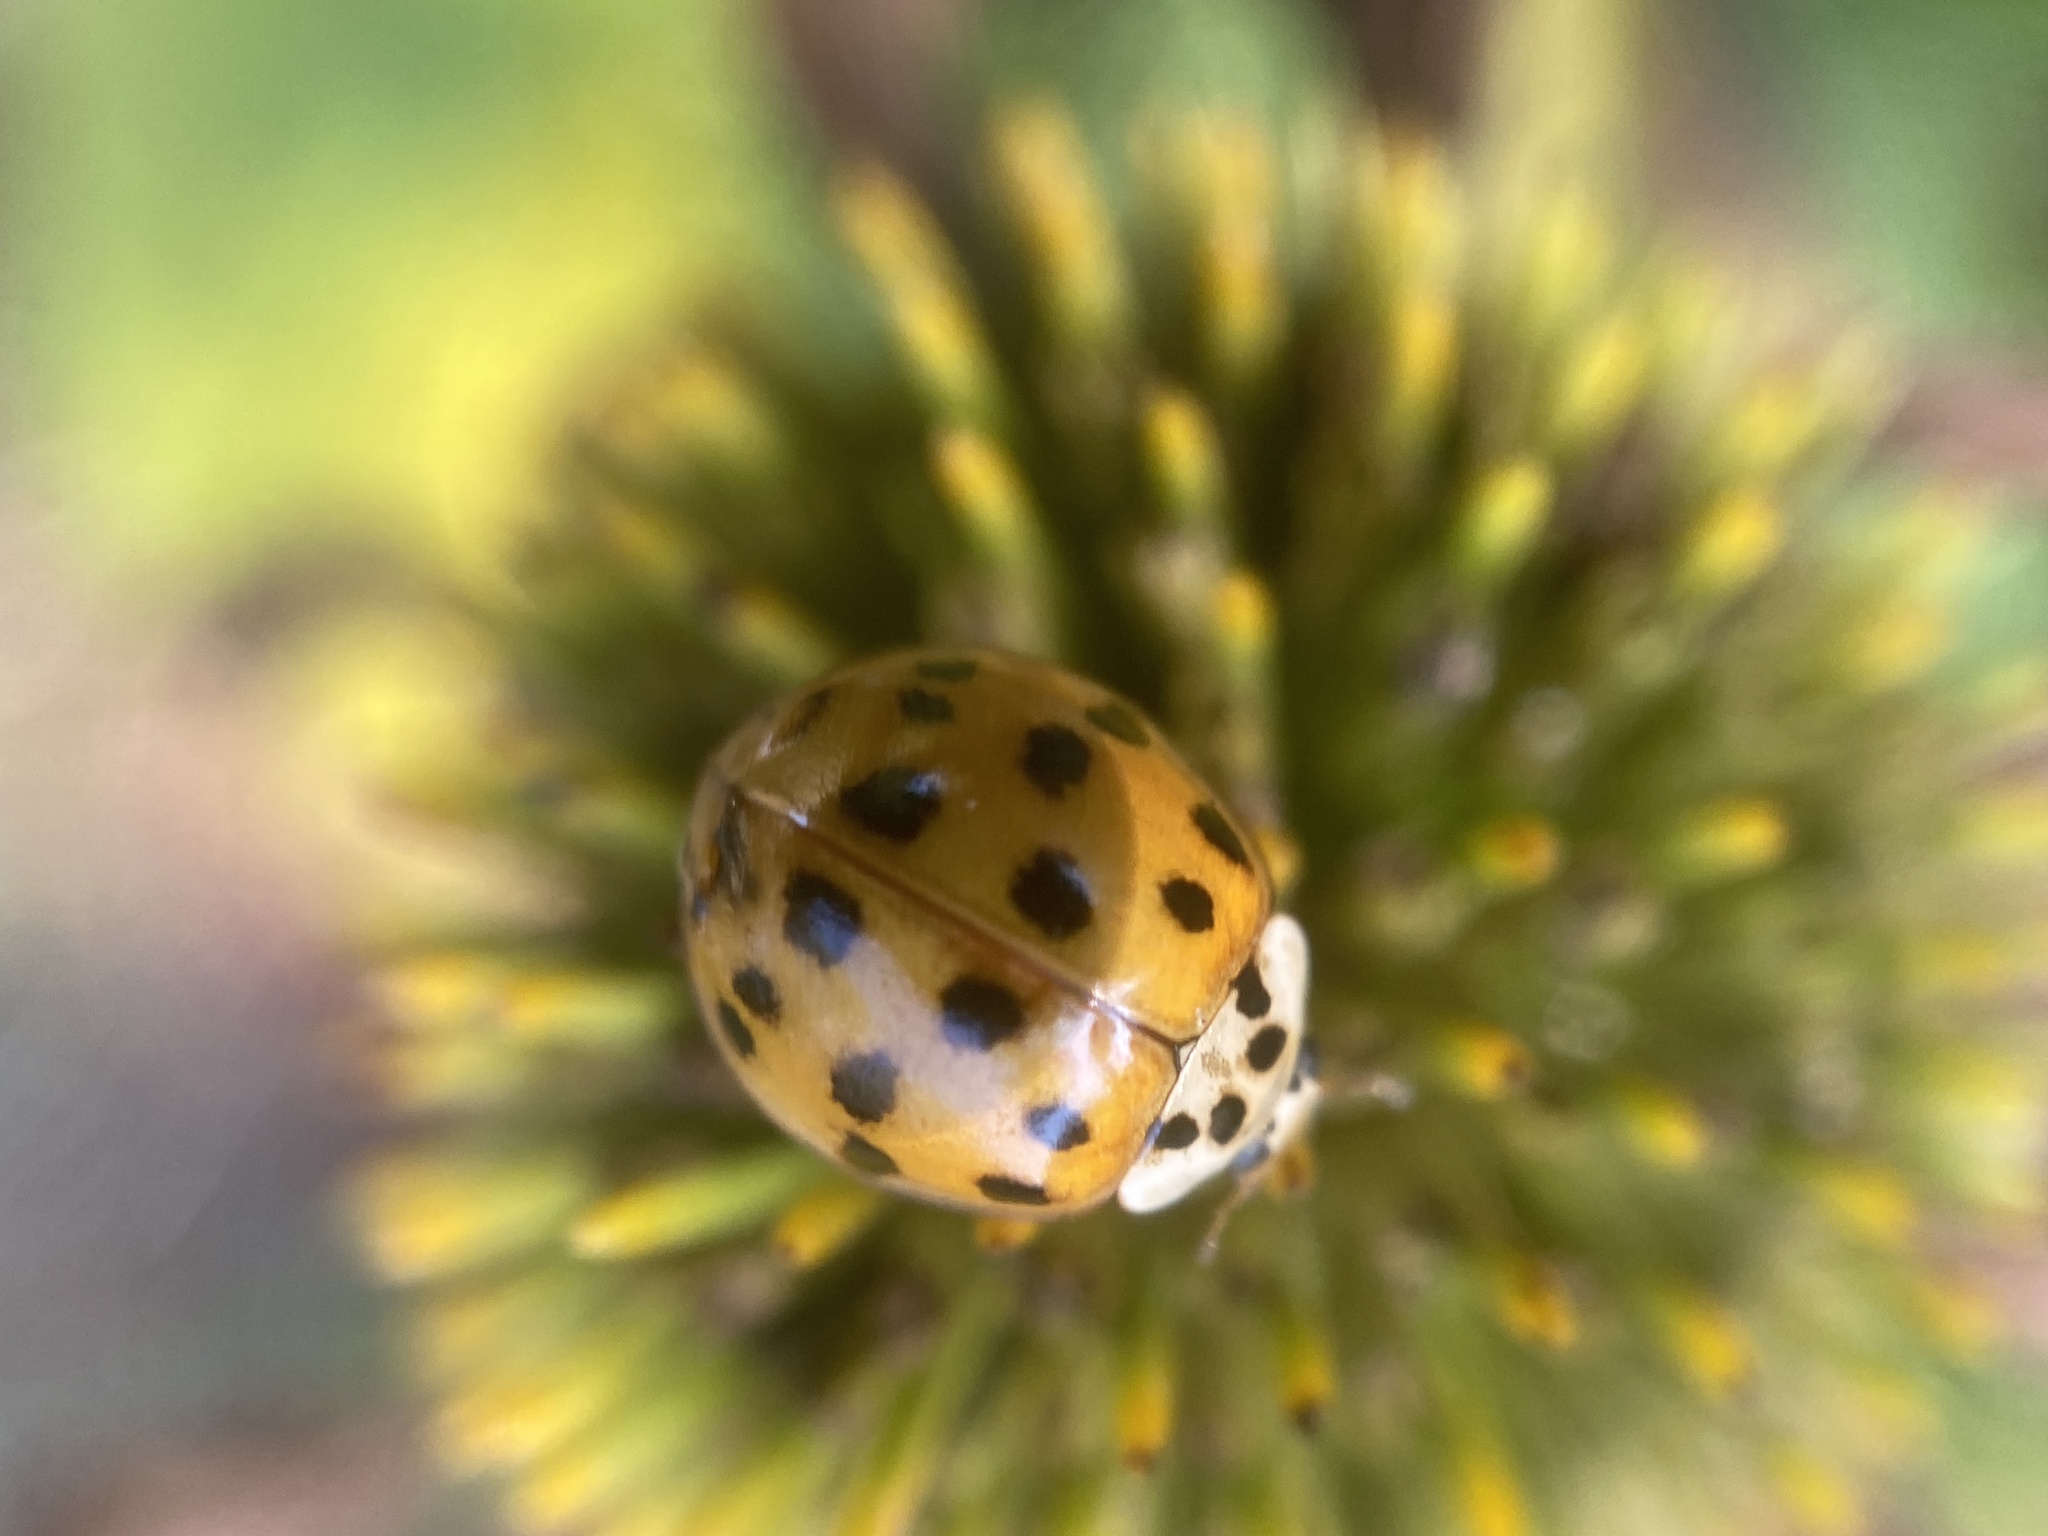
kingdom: Animalia
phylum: Arthropoda
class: Insecta
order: Coleoptera
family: Coccinellidae
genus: Harmonia
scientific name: Harmonia axyridis
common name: Harlequin ladybird
